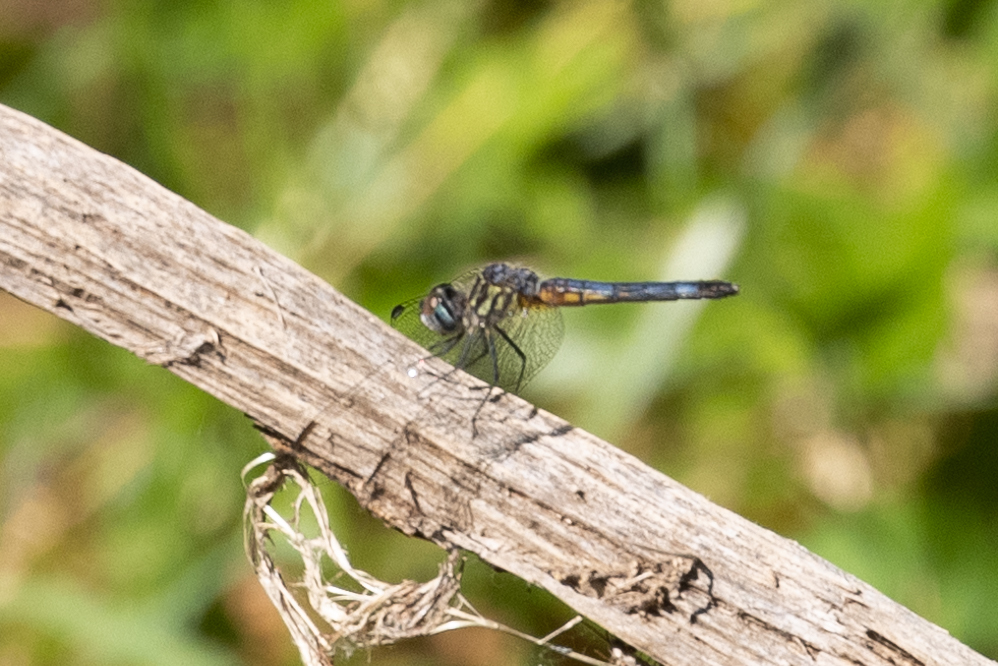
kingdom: Animalia
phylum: Arthropoda
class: Insecta
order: Odonata
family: Libellulidae
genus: Pachydiplax
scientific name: Pachydiplax longipennis
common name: Blue dasher
